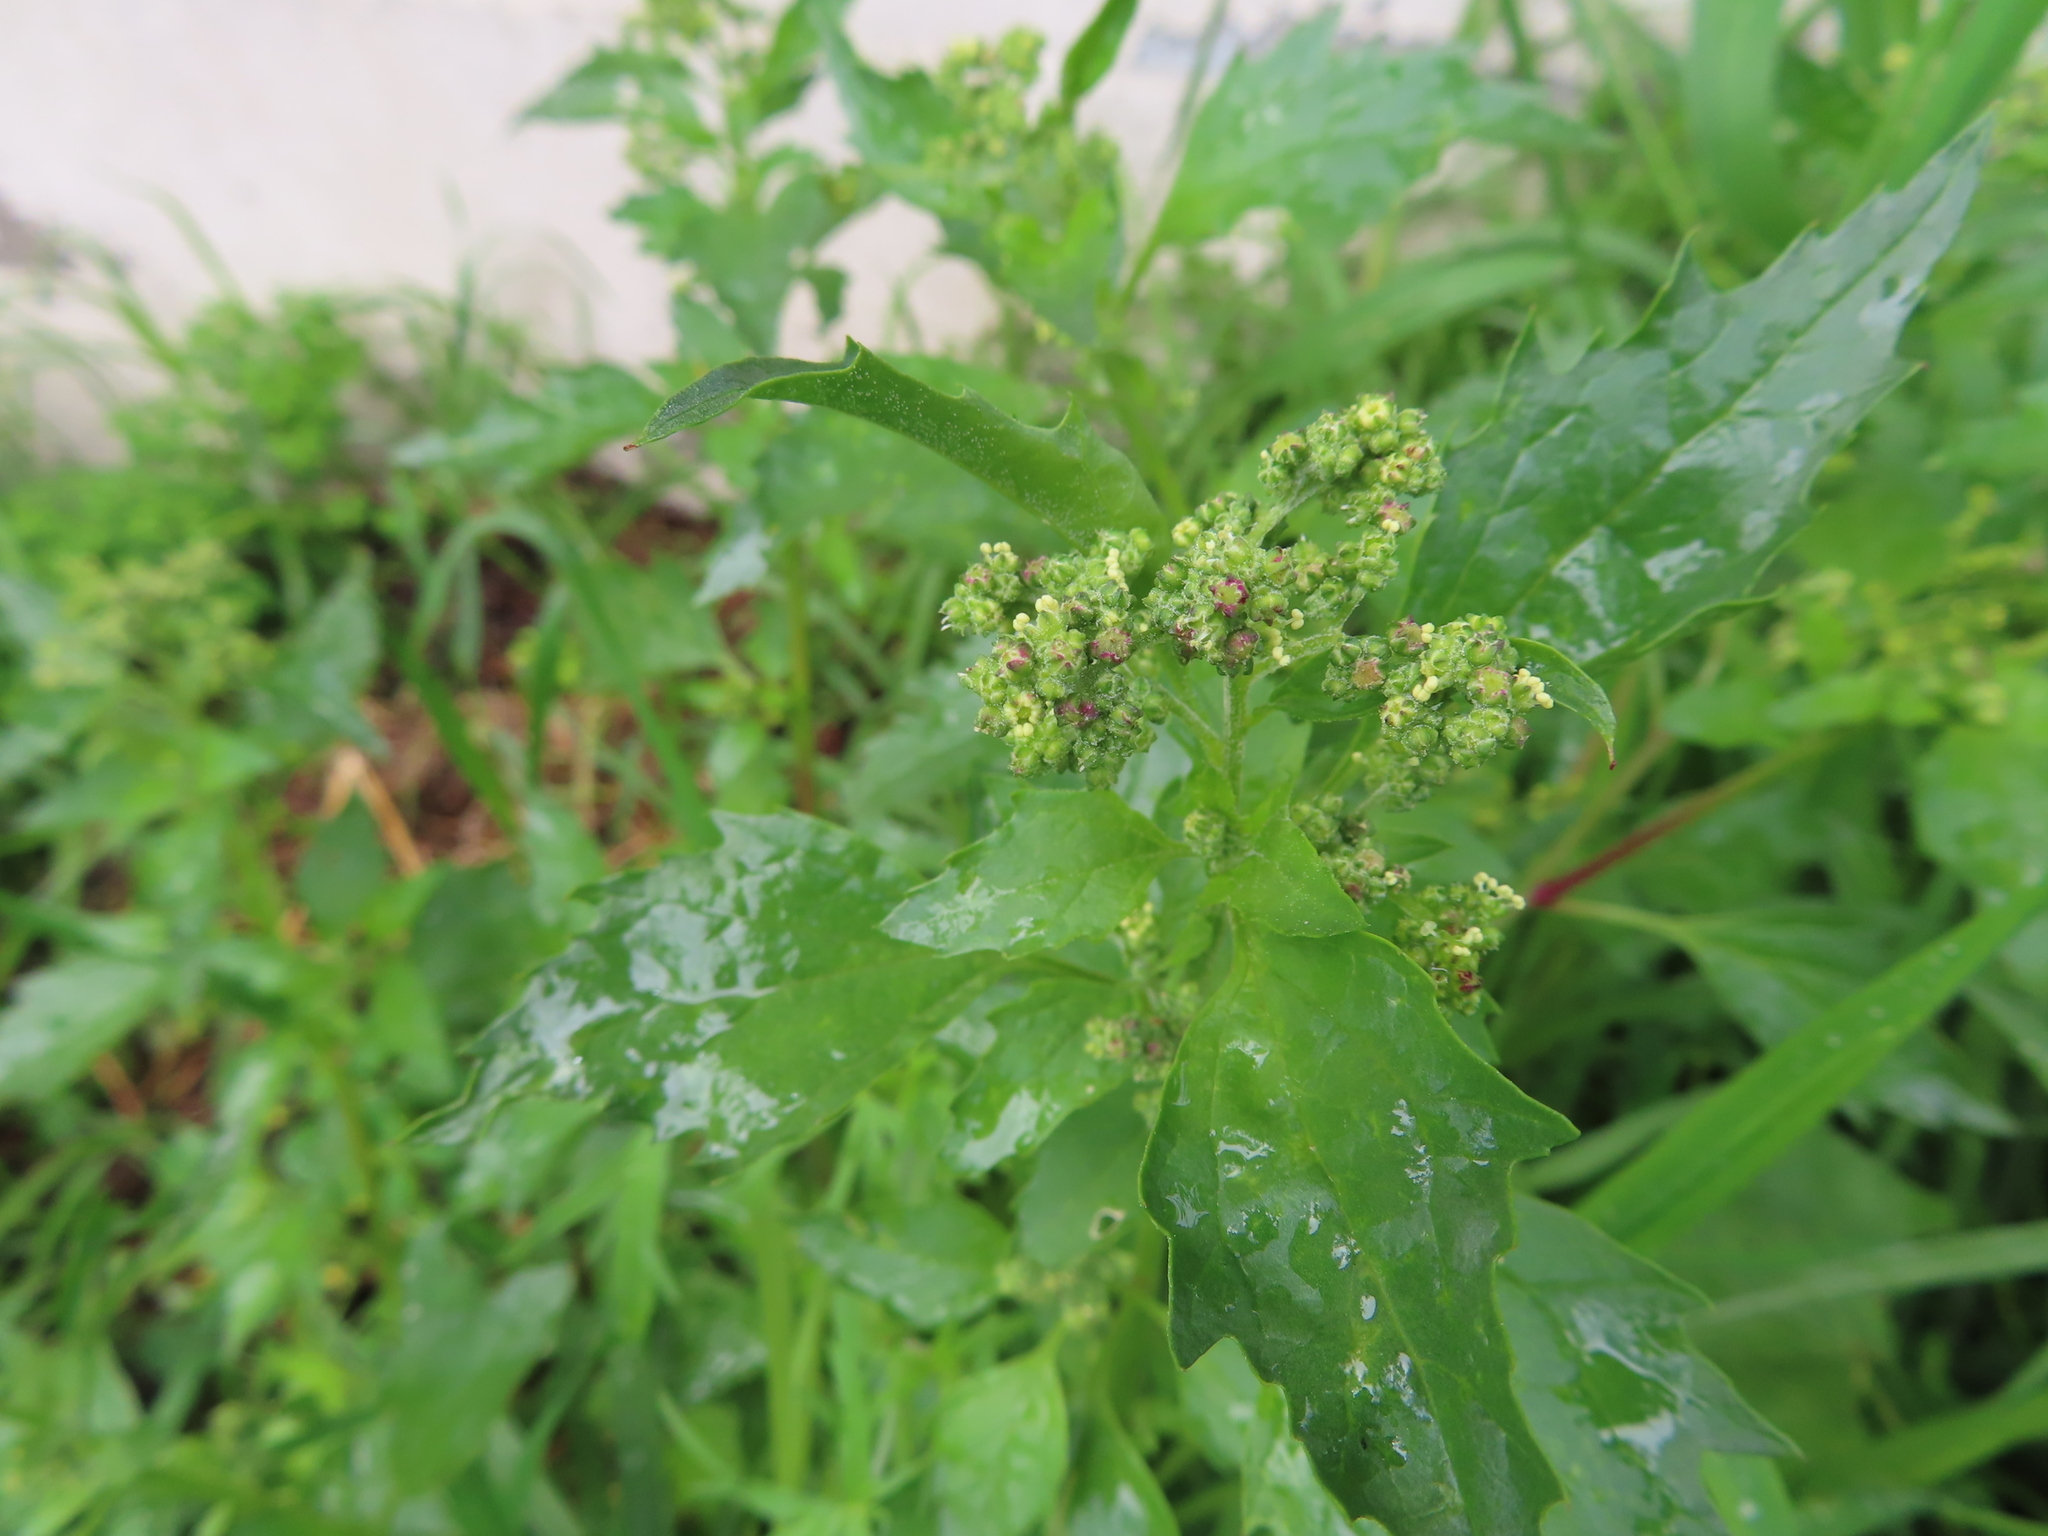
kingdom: Plantae
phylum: Tracheophyta
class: Magnoliopsida
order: Caryophyllales
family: Amaranthaceae
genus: Chenopodiastrum
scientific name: Chenopodiastrum murale
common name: Sowbane
